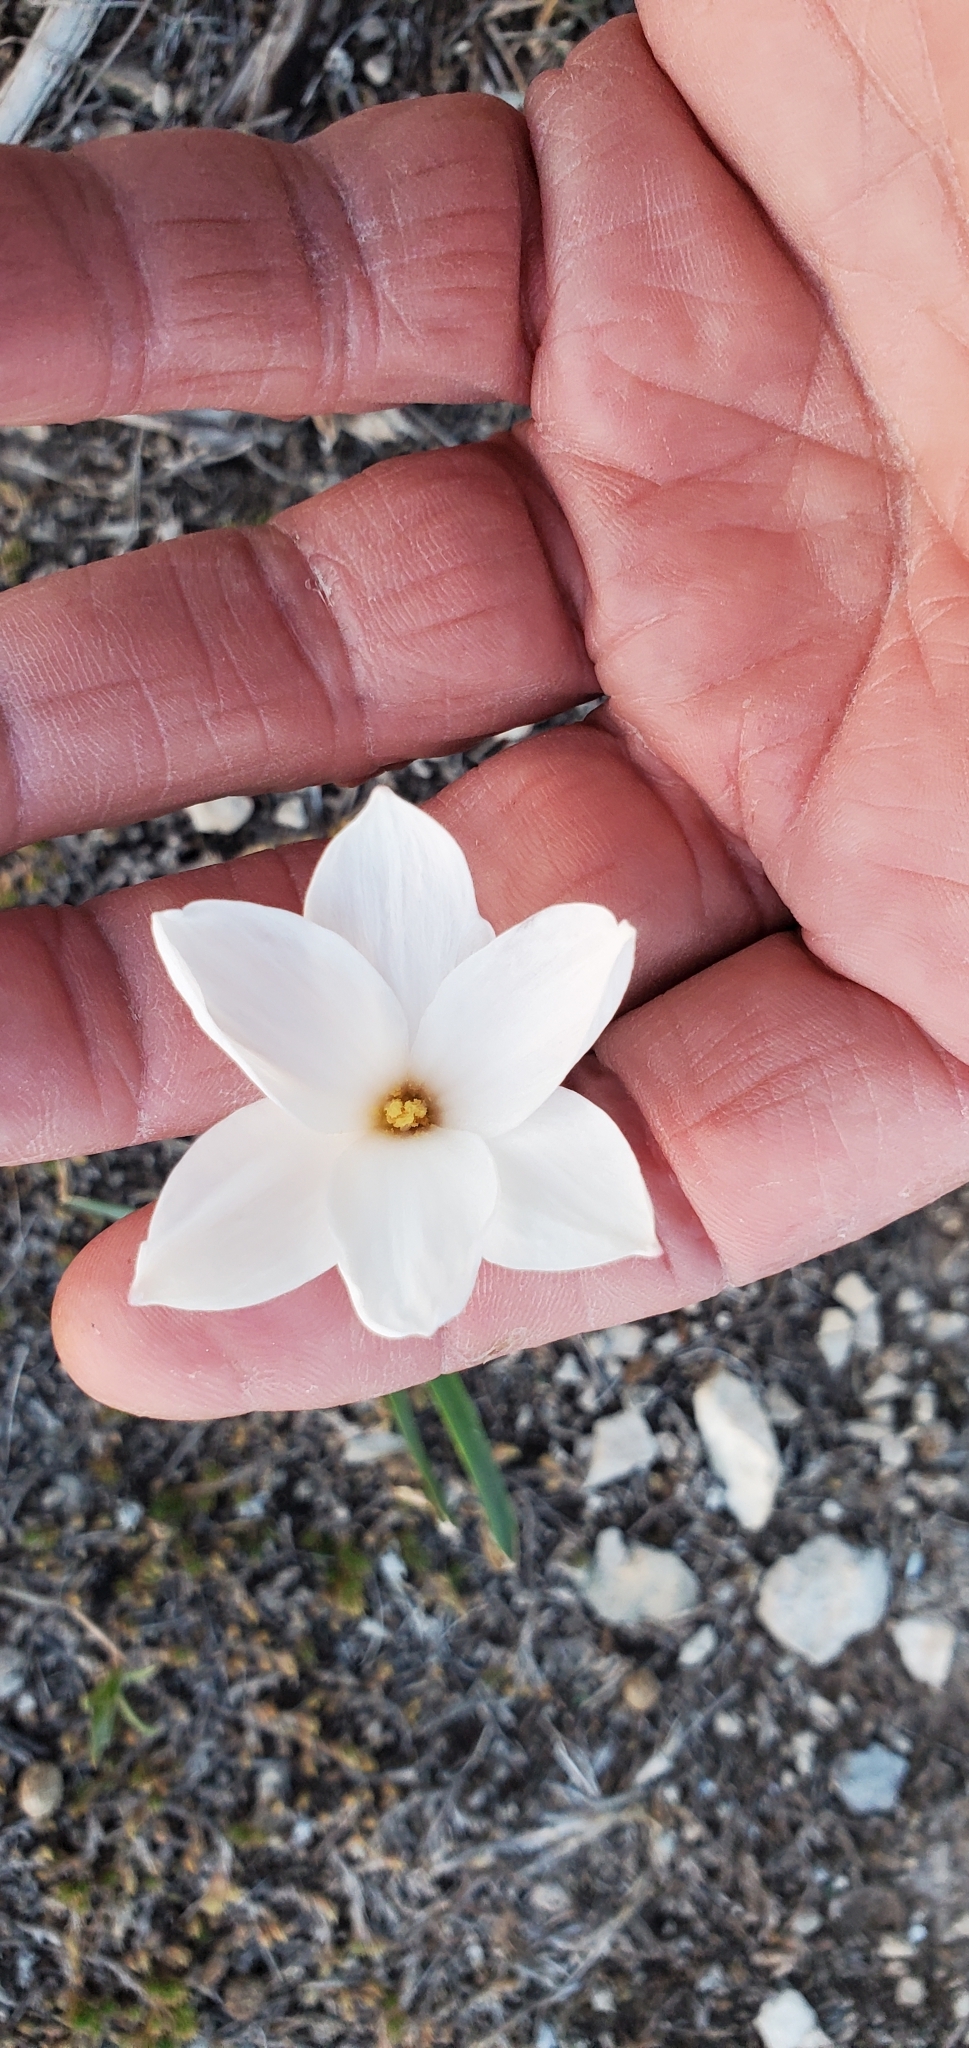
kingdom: Plantae
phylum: Tracheophyta
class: Liliopsida
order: Asparagales
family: Amaryllidaceae
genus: Zephyranthes
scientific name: Zephyranthes drummondii
